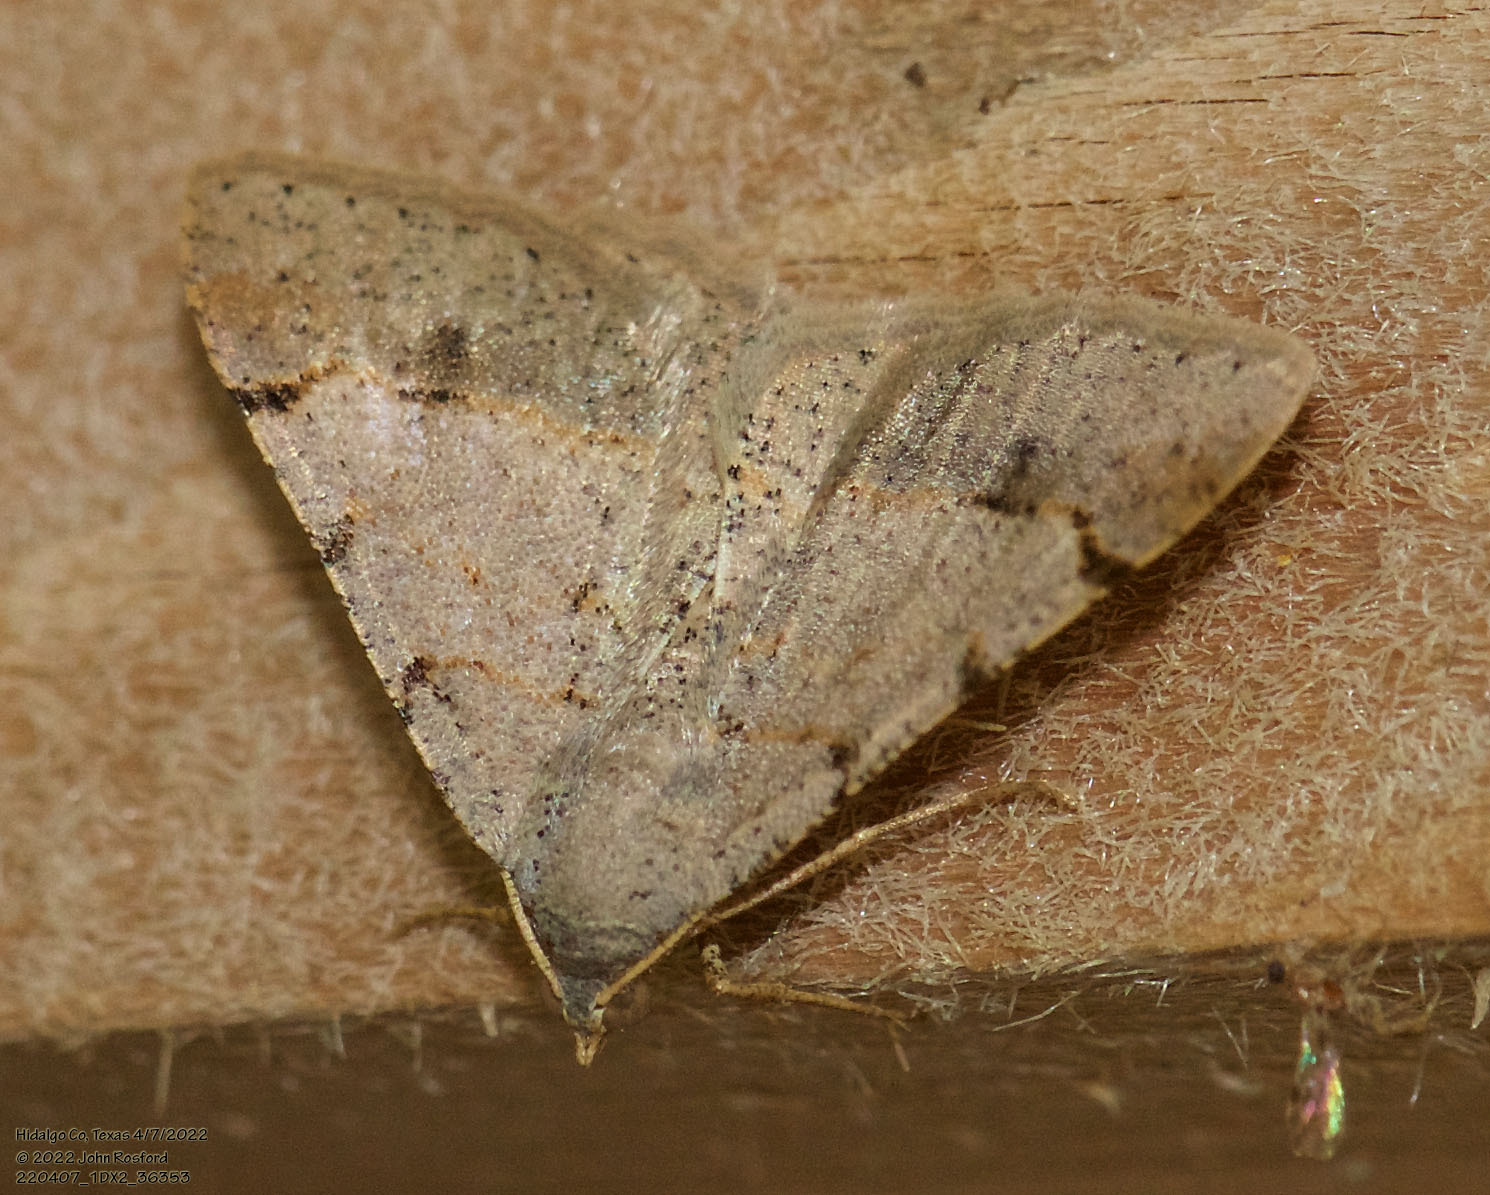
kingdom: Animalia
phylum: Arthropoda
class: Insecta
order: Lepidoptera
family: Geometridae
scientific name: Geometridae
